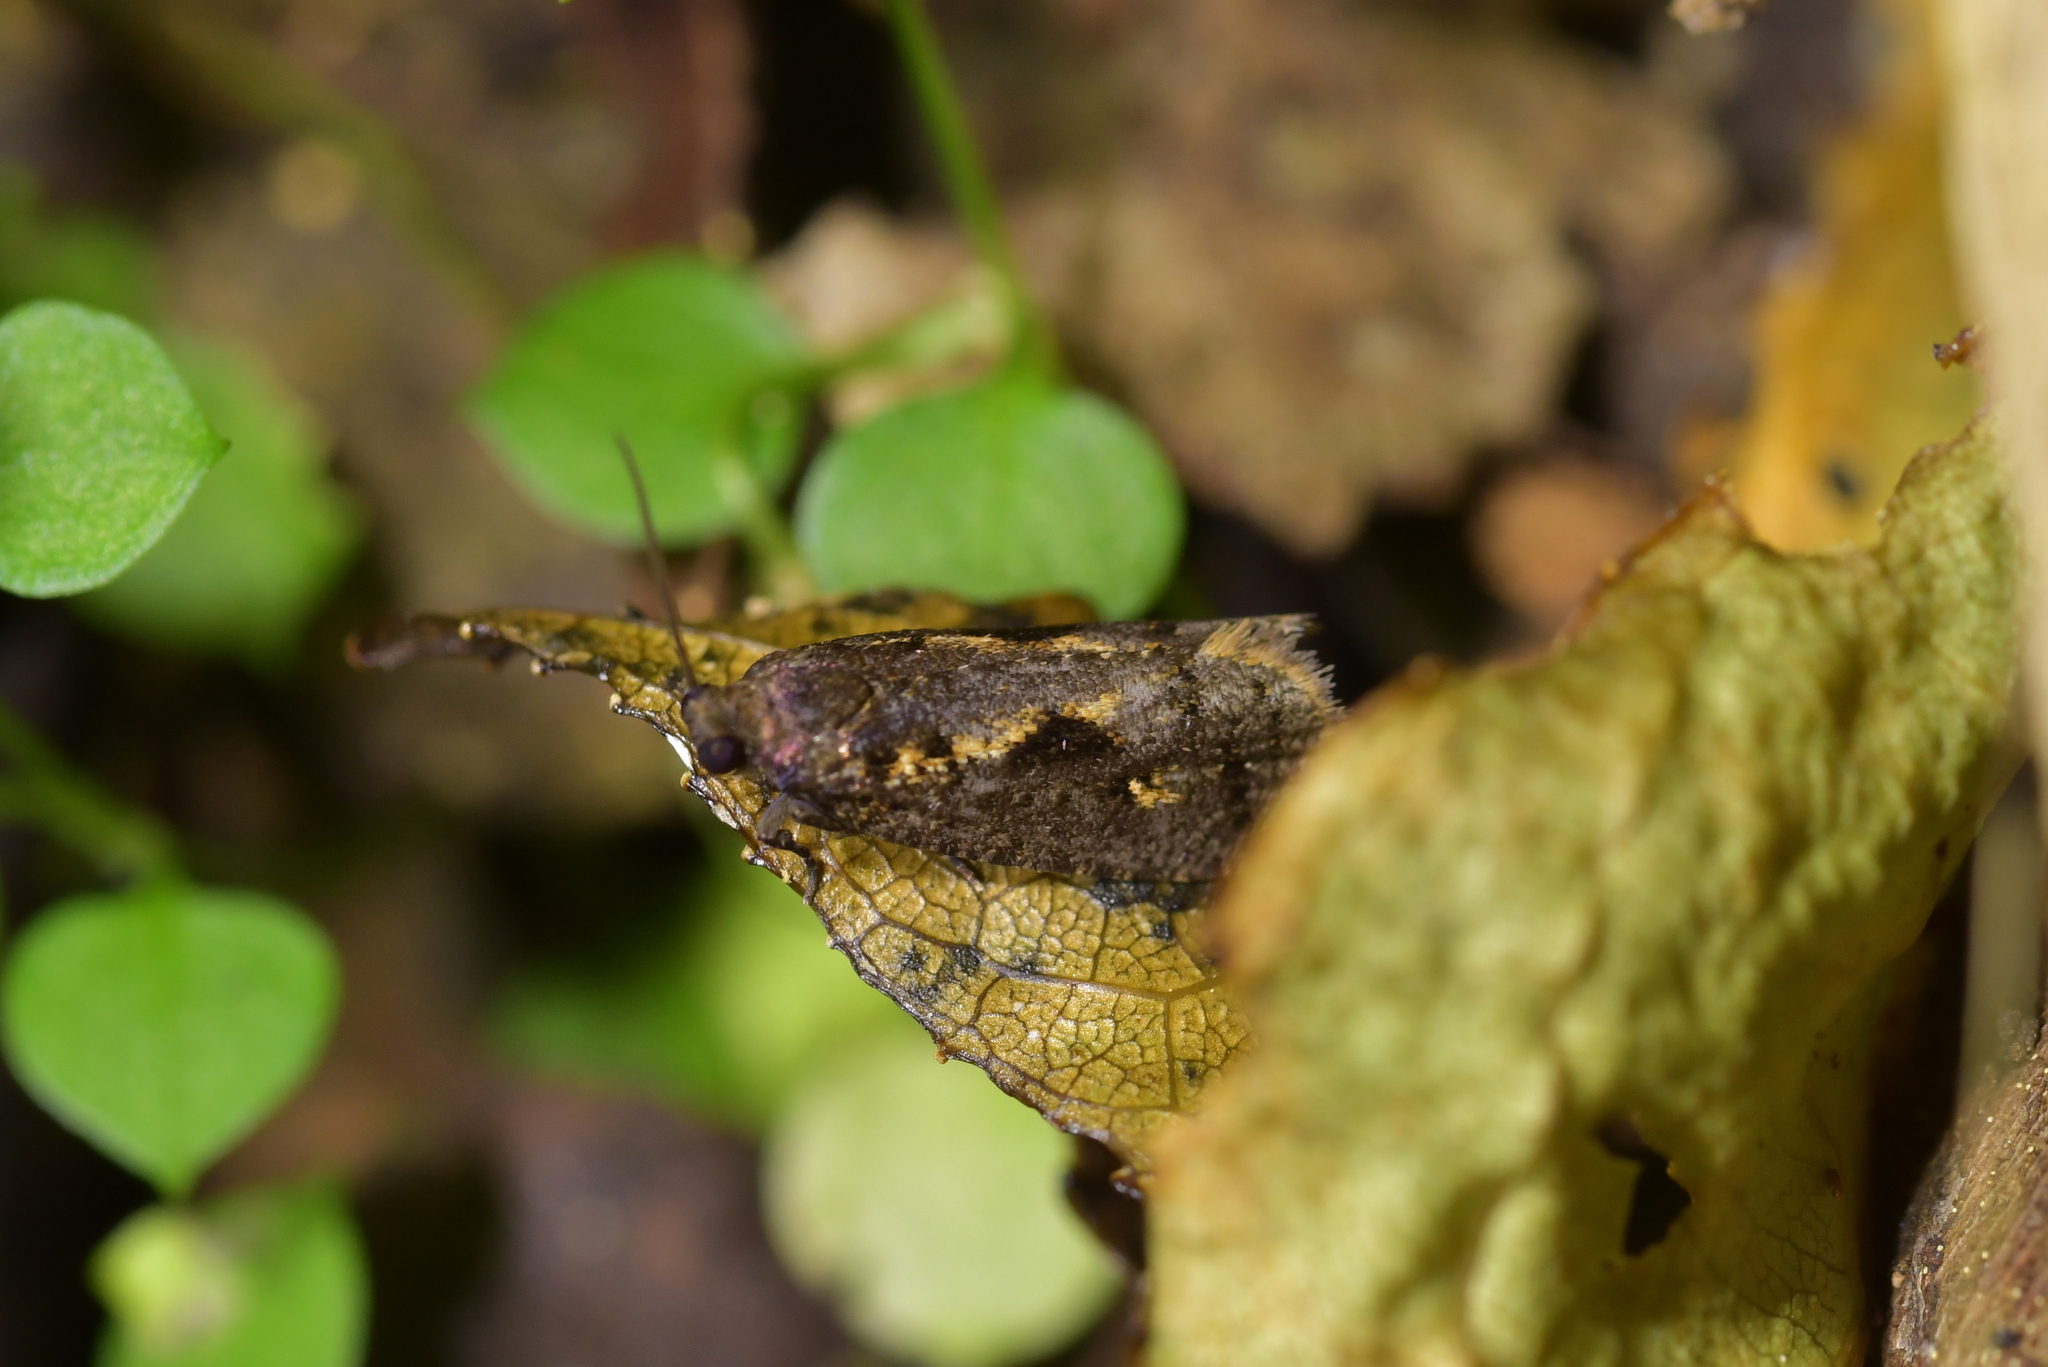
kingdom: Animalia
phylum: Arthropoda
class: Insecta
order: Lepidoptera
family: Tortricidae
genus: Cryptaspasma
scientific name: Cryptaspasma querula
